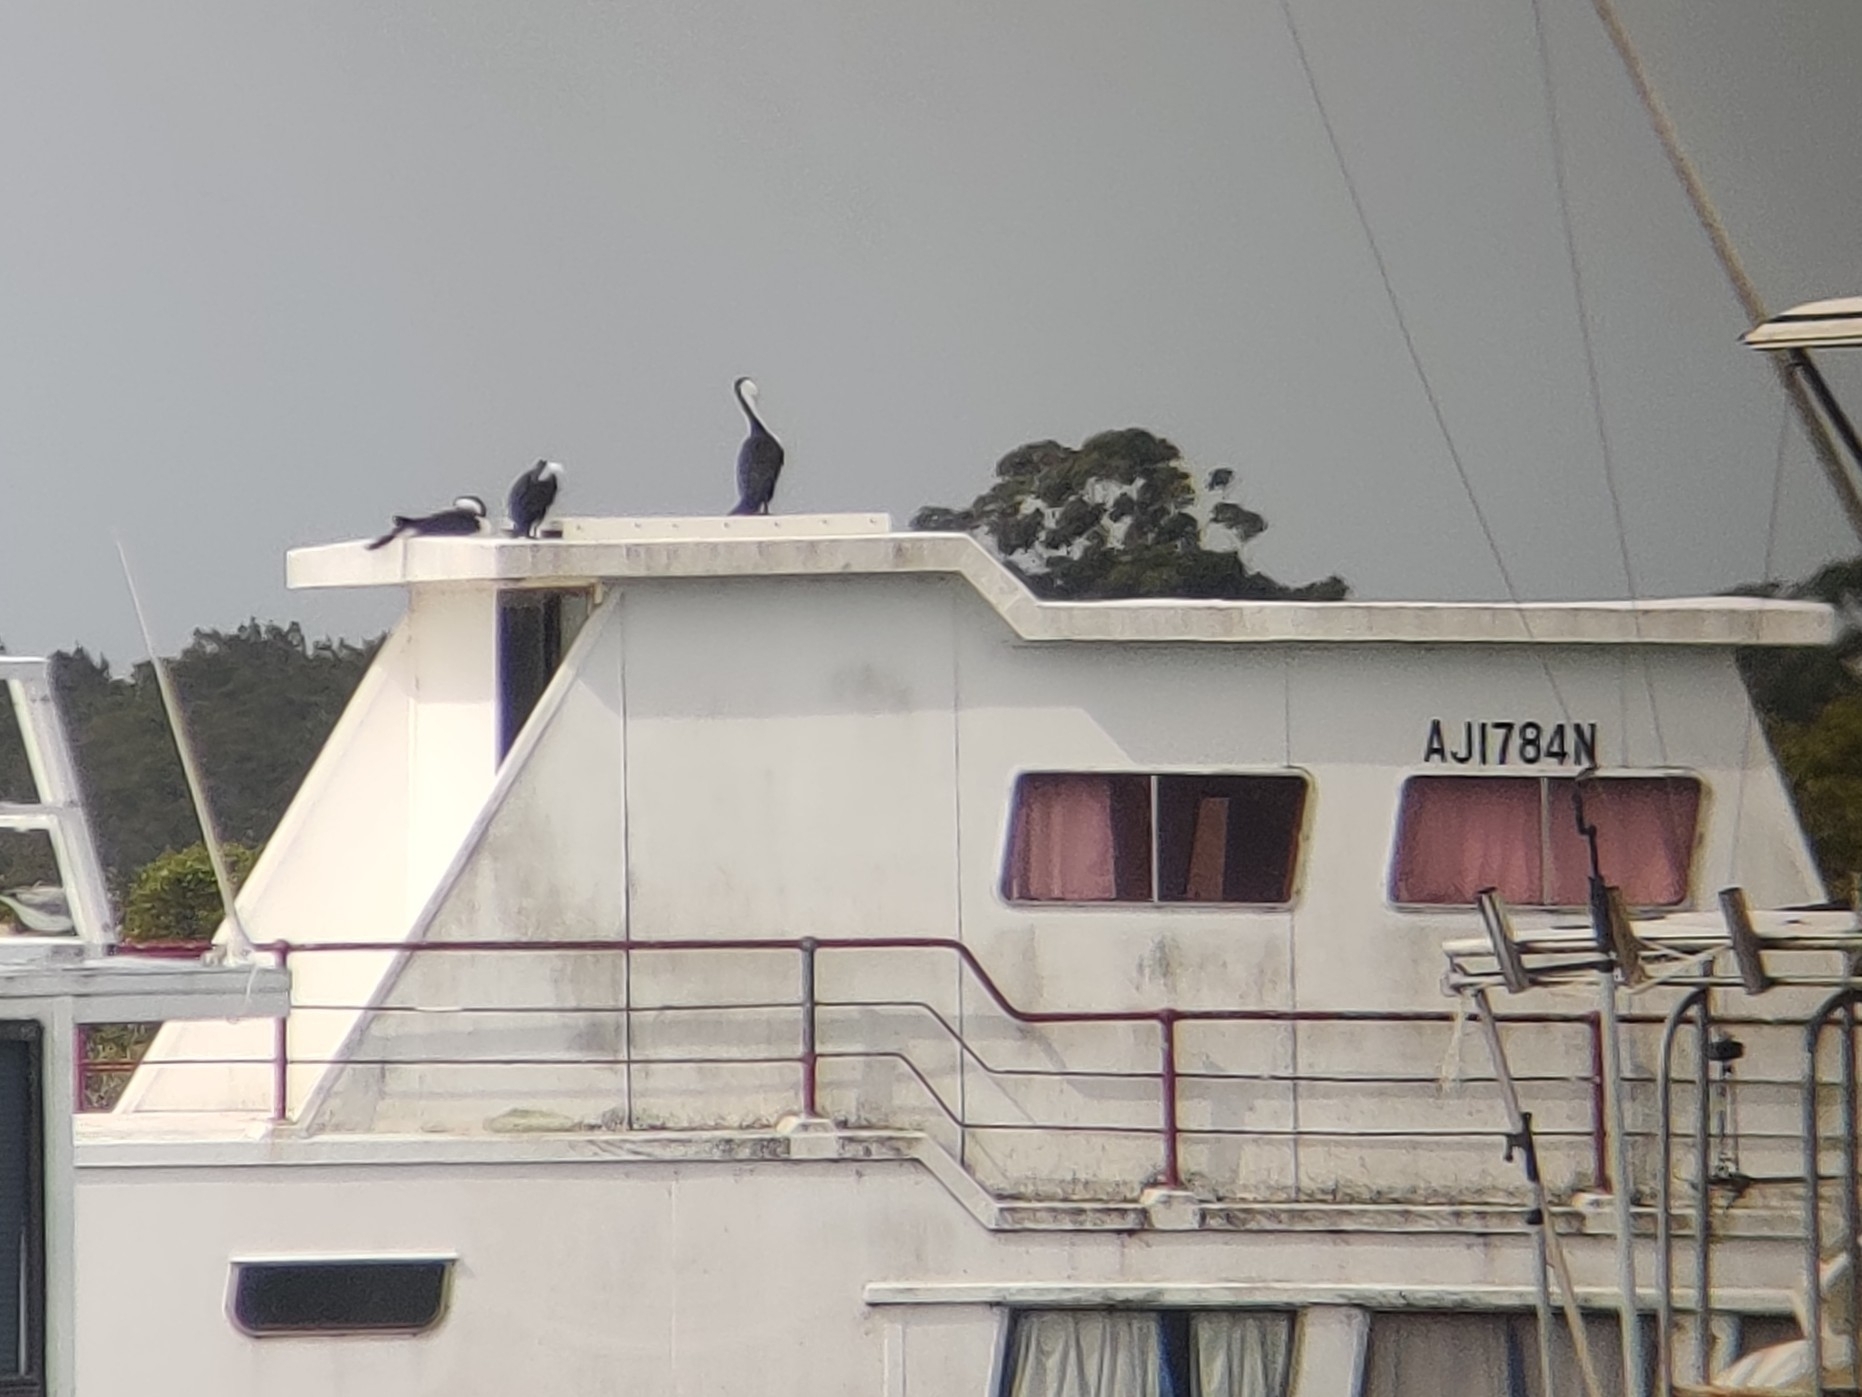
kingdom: Animalia
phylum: Chordata
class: Aves
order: Suliformes
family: Phalacrocoracidae
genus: Phalacrocorax
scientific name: Phalacrocorax varius
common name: Pied cormorant
